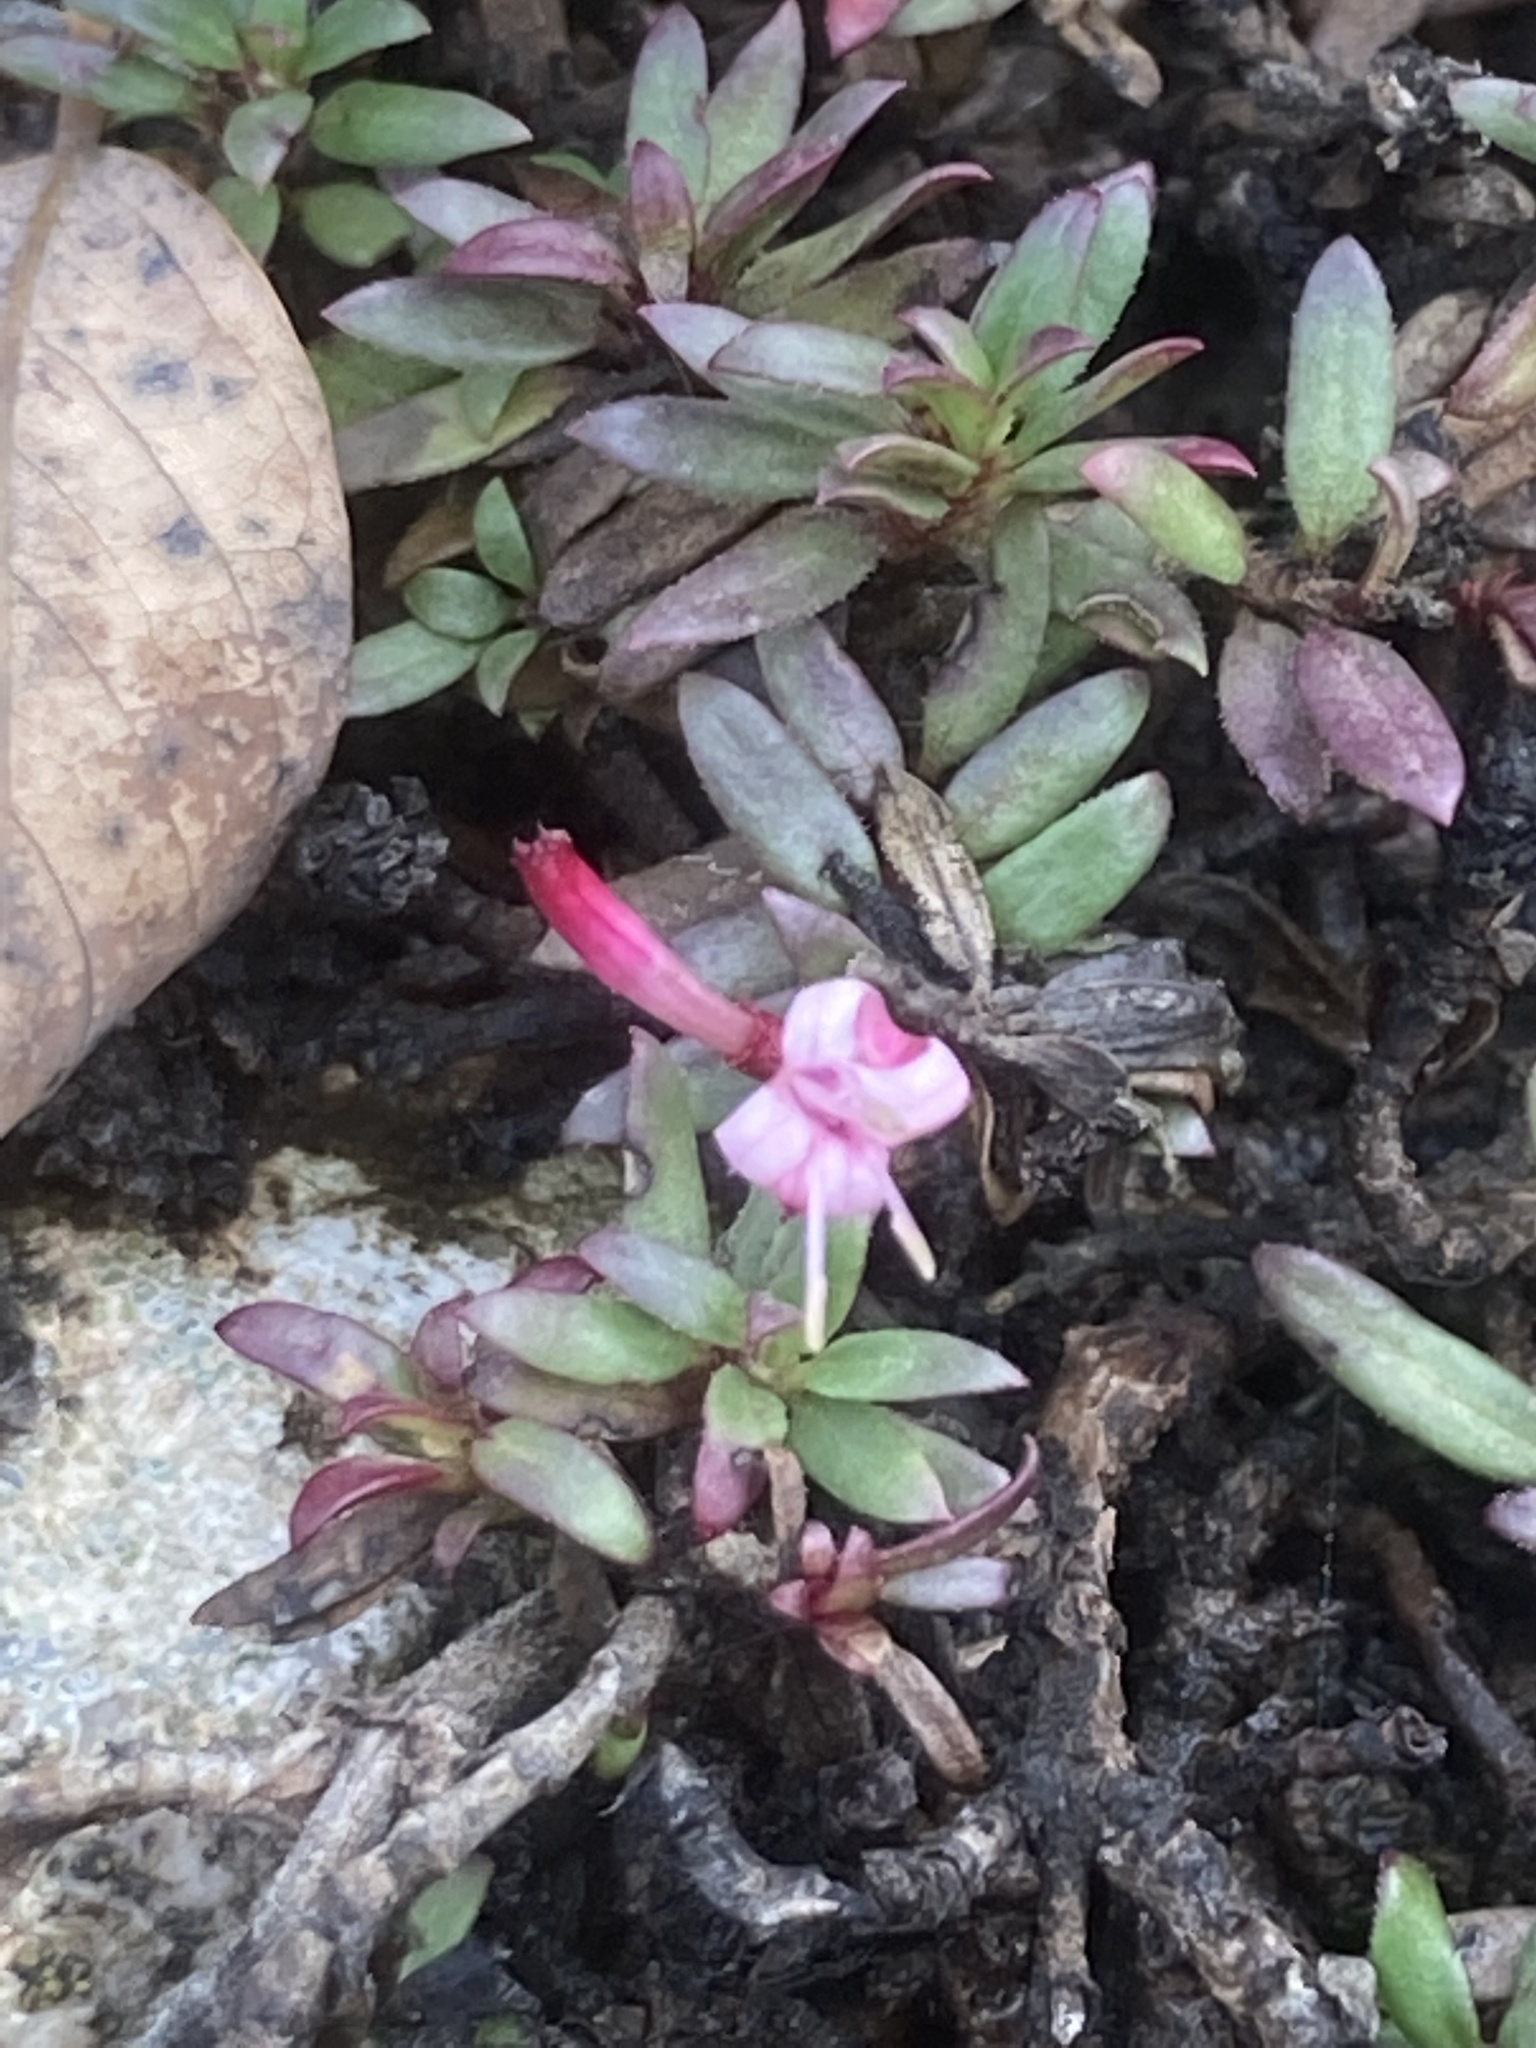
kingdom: Plantae
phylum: Tracheophyta
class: Magnoliopsida
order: Gentianales
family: Rubiaceae
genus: Plocama
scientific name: Plocama calabrica
